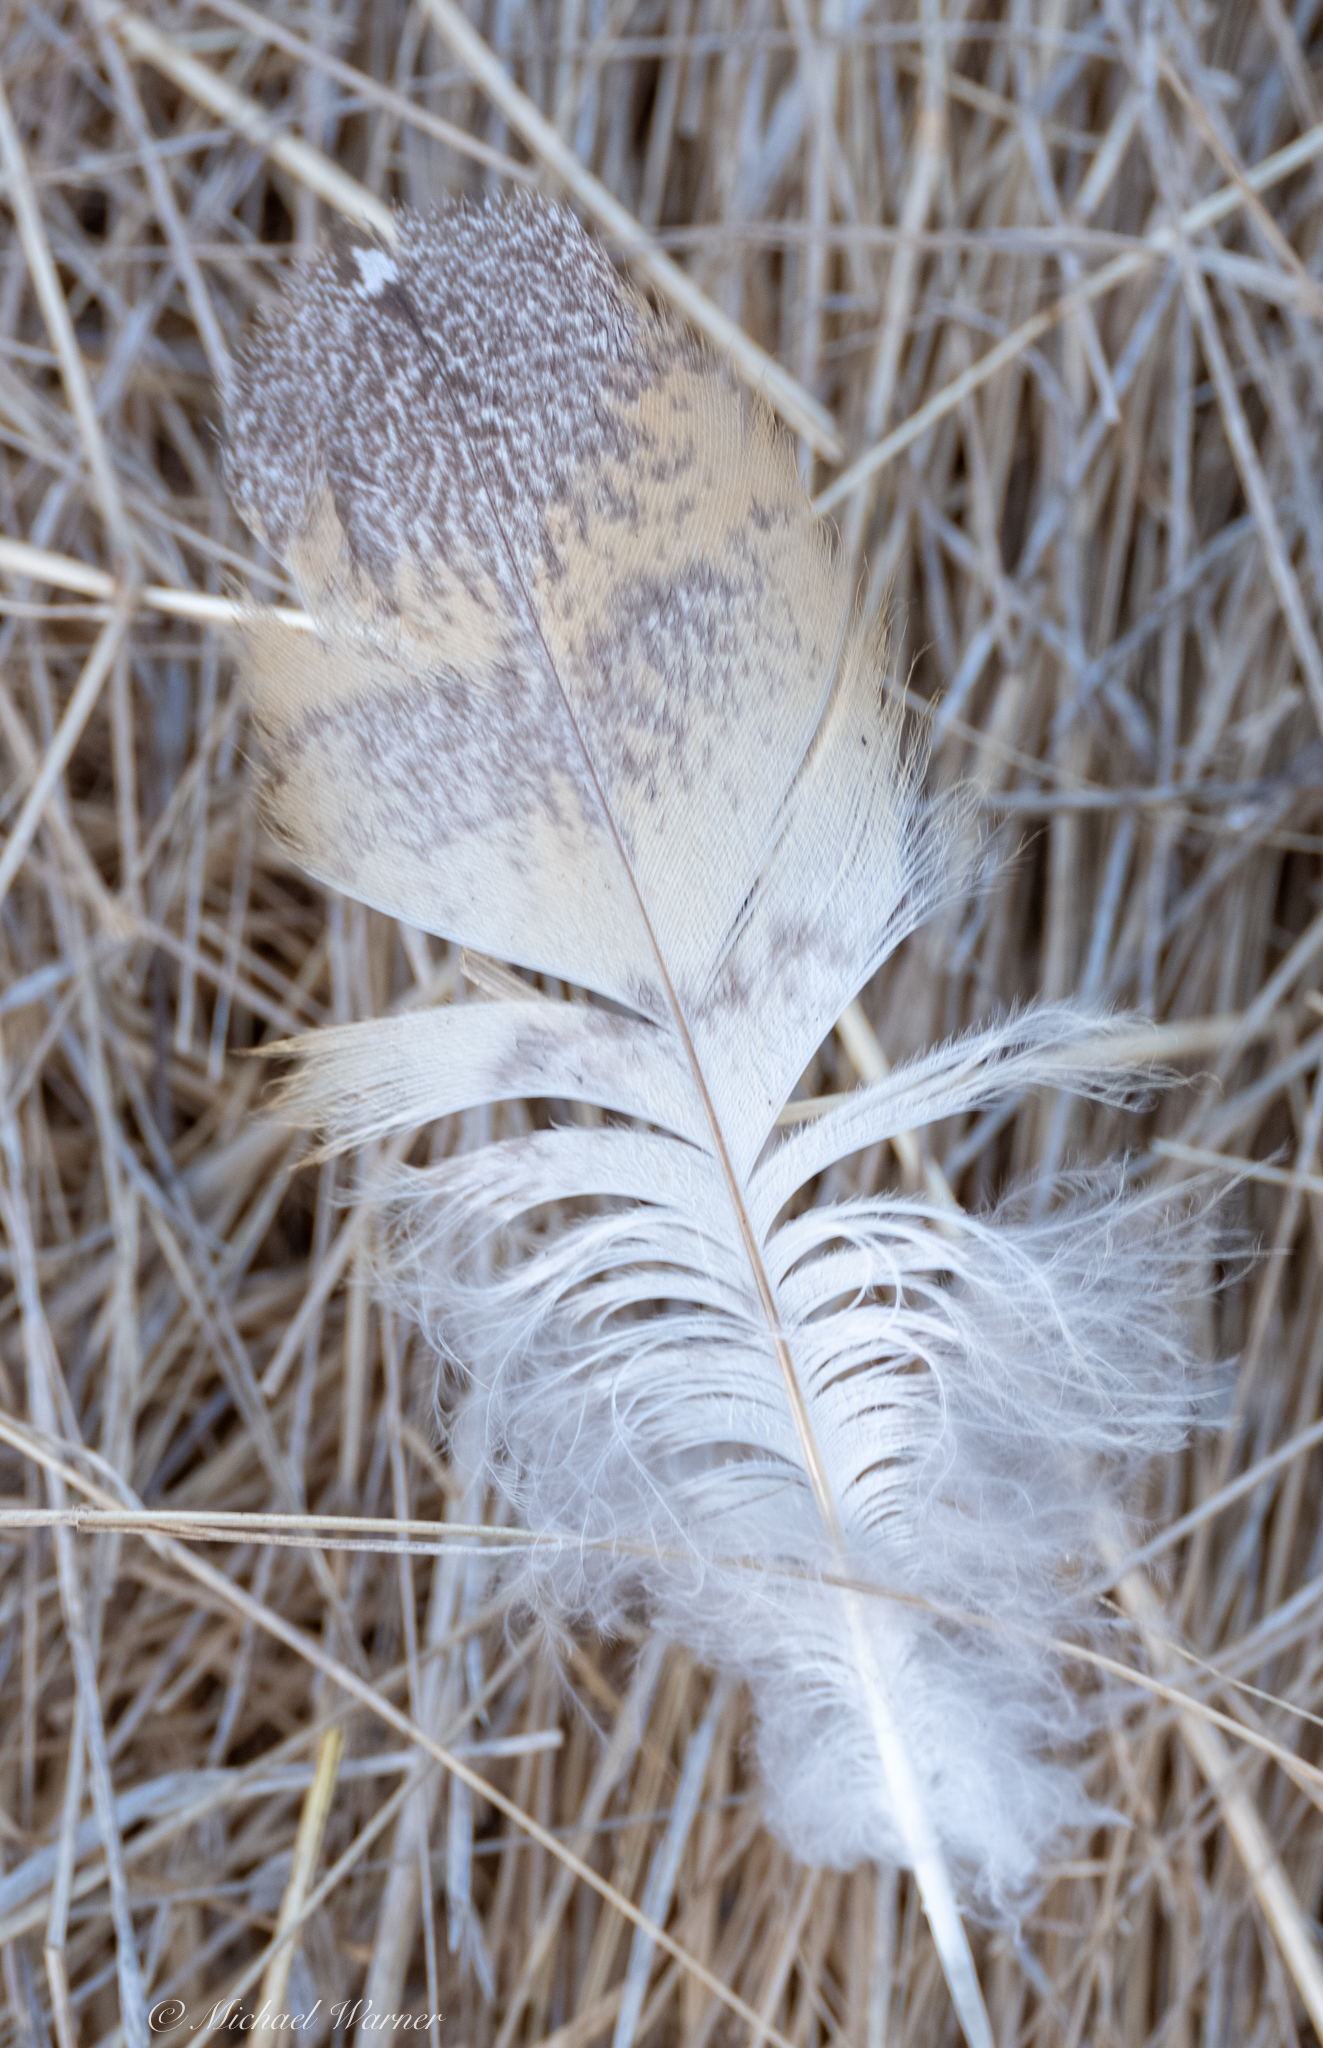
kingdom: Animalia
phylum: Chordata
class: Aves
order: Strigiformes
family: Tytonidae
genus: Tyto
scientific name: Tyto alba
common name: Barn owl
